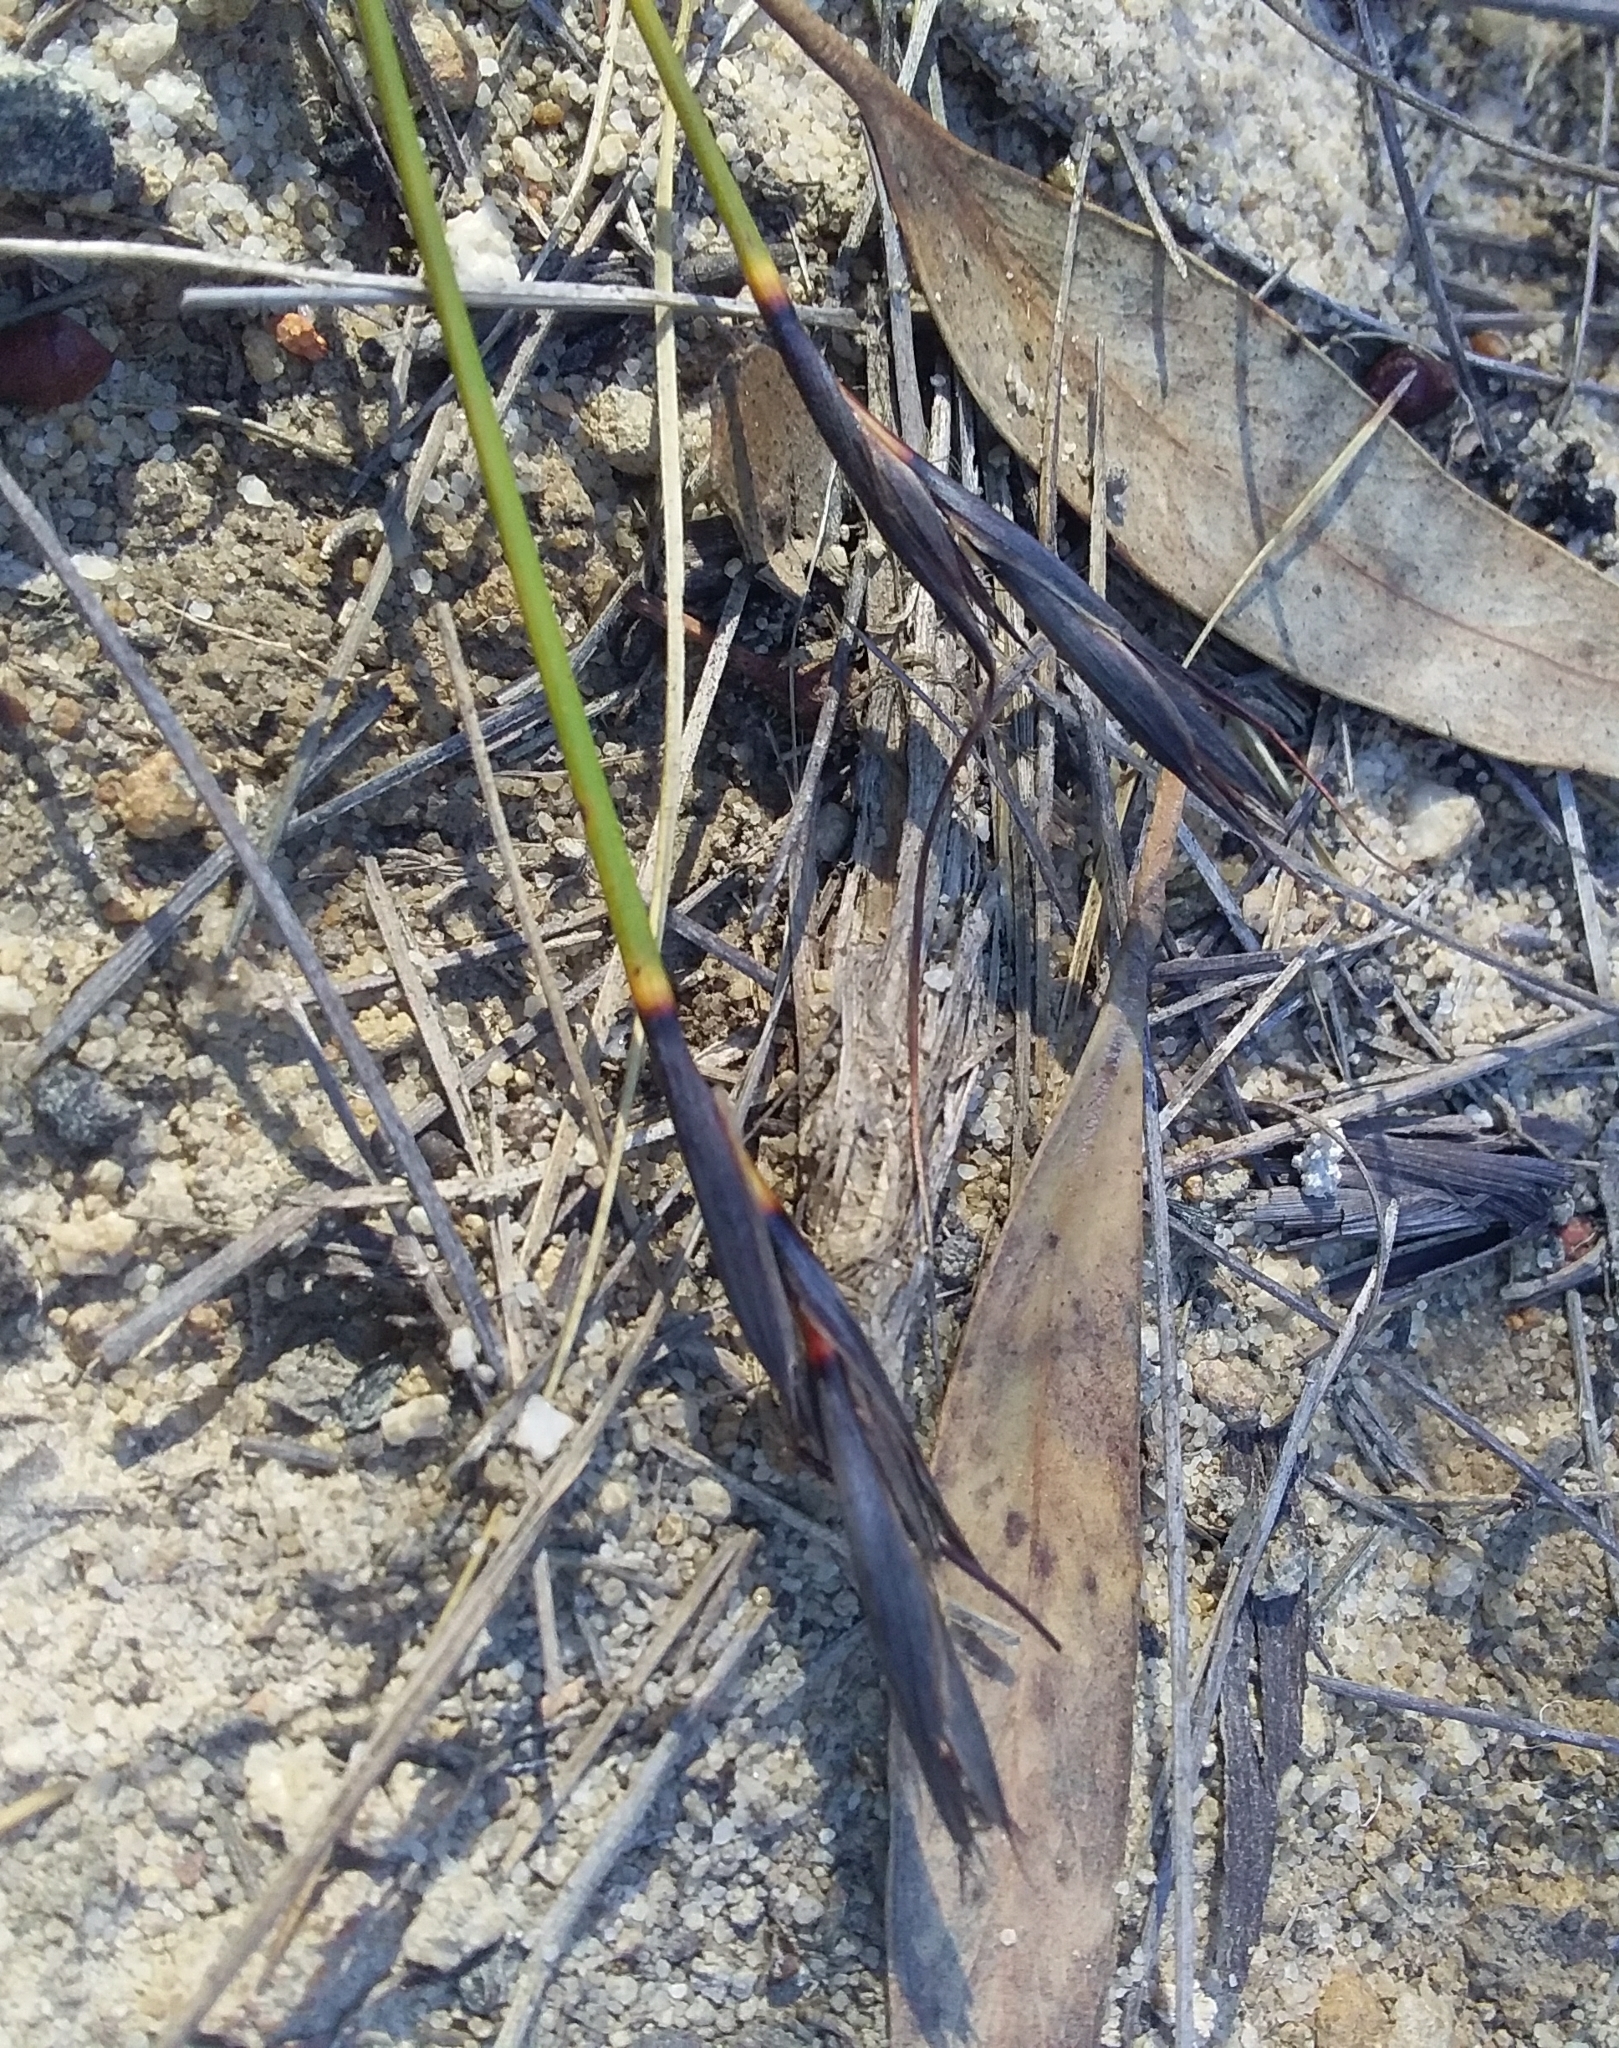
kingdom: Plantae
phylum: Tracheophyta
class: Liliopsida
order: Poales
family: Cyperaceae
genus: Lepidosperma
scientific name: Lepidosperma carphoides
